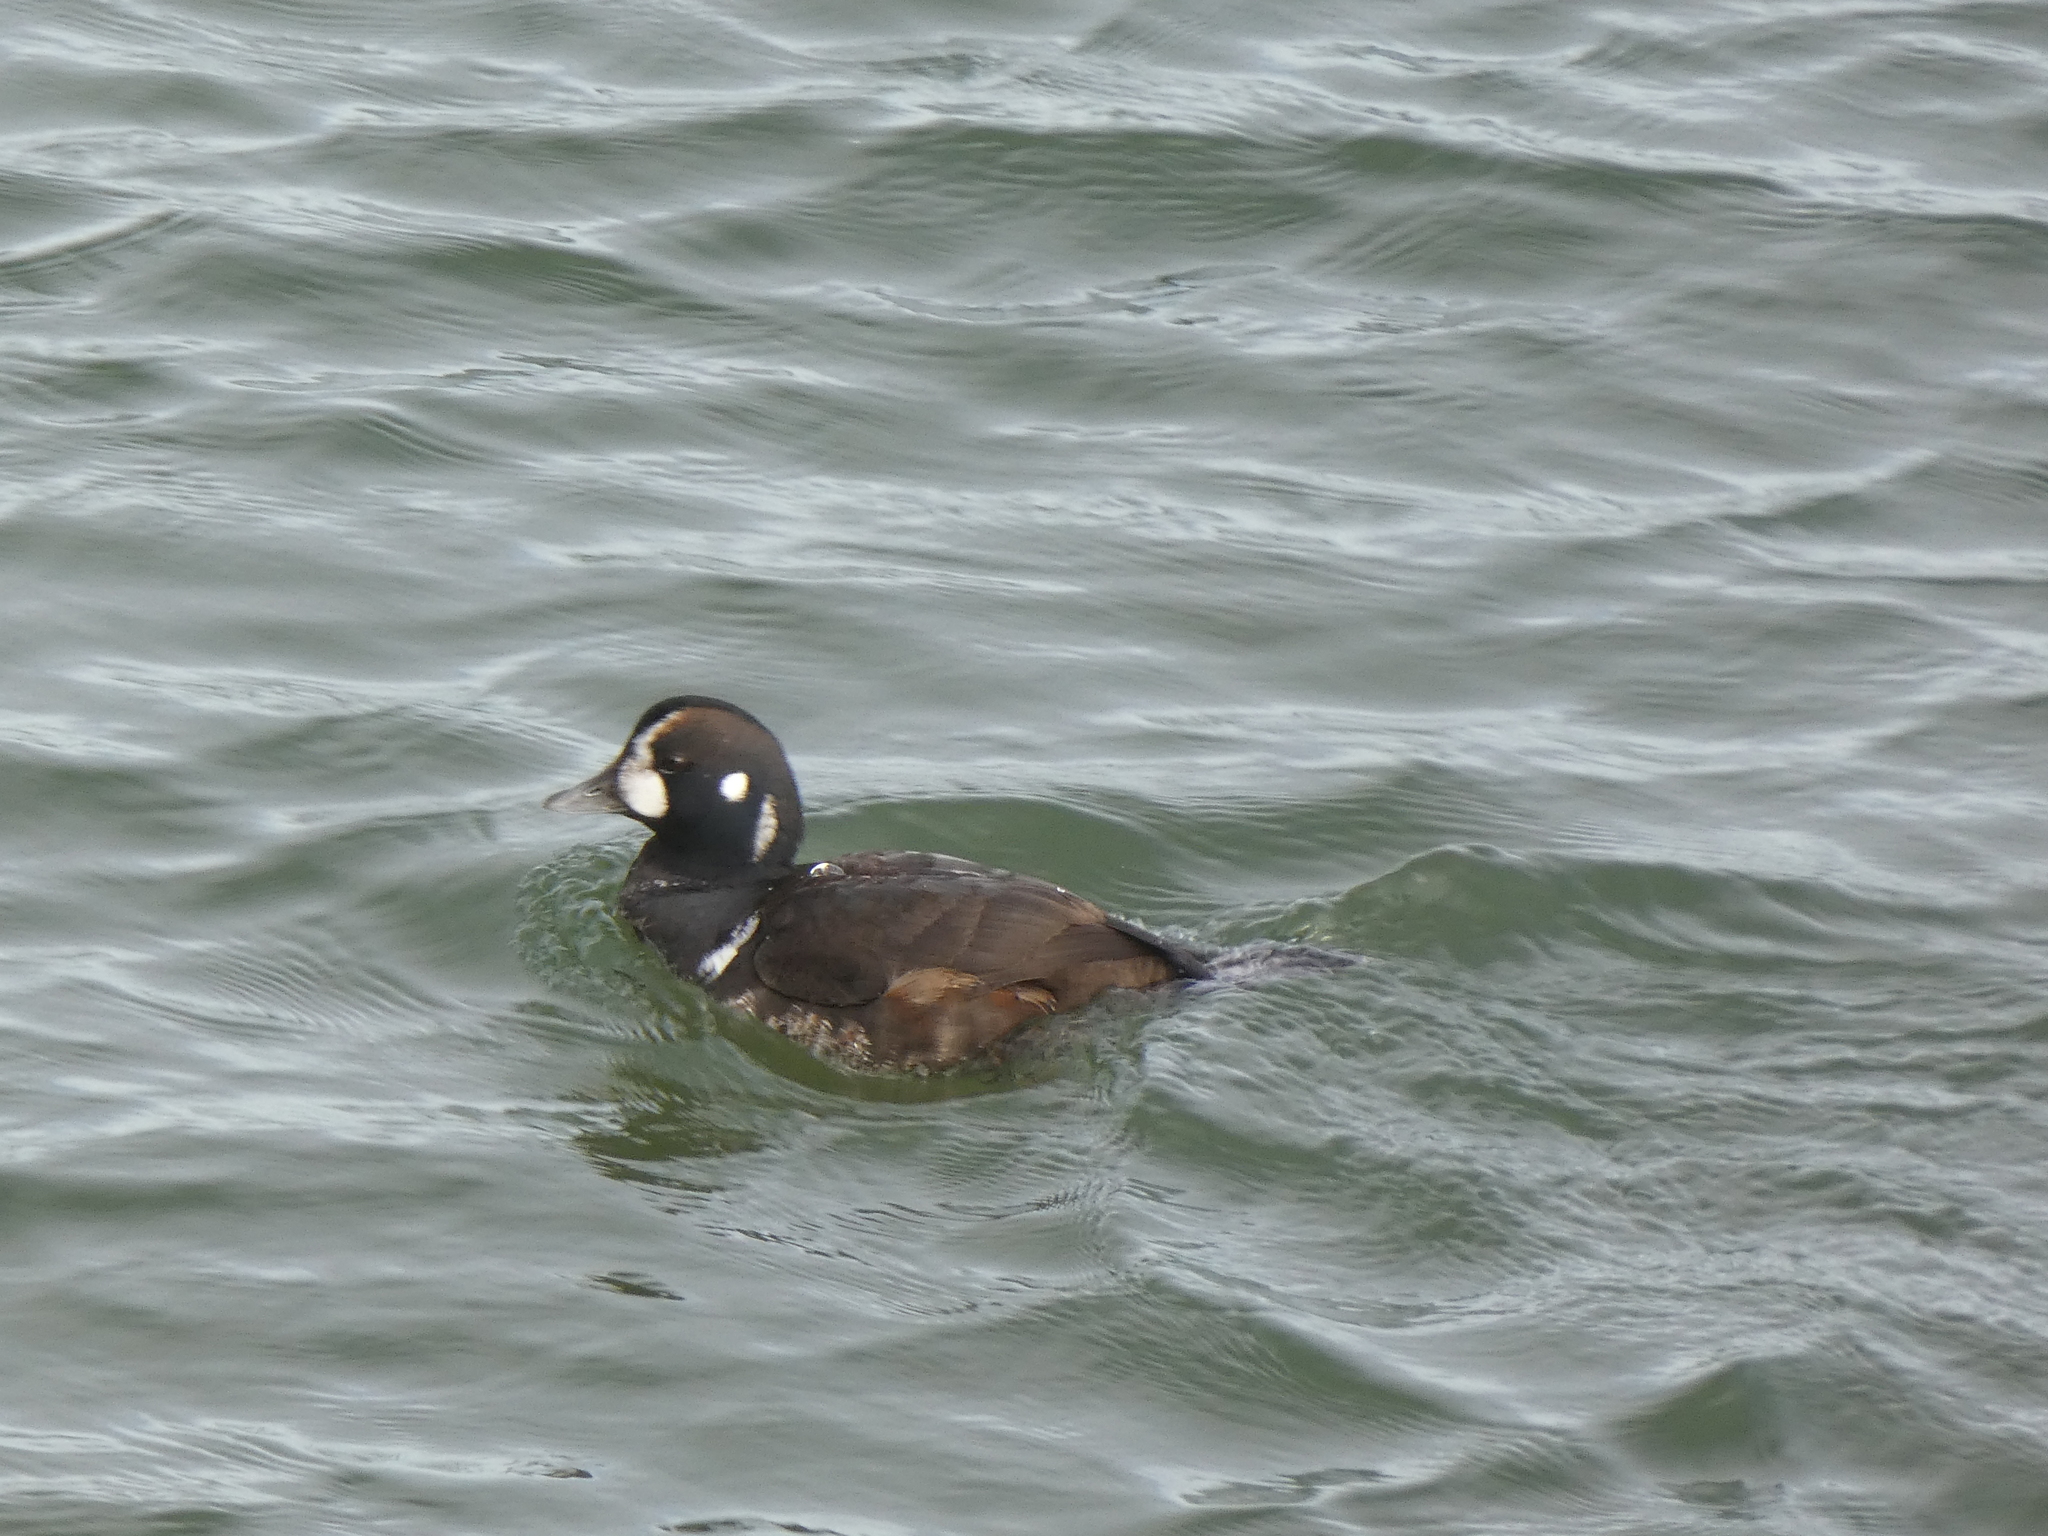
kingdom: Animalia
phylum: Chordata
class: Aves
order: Anseriformes
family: Anatidae
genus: Histrionicus
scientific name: Histrionicus histrionicus
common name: Harlequin duck
